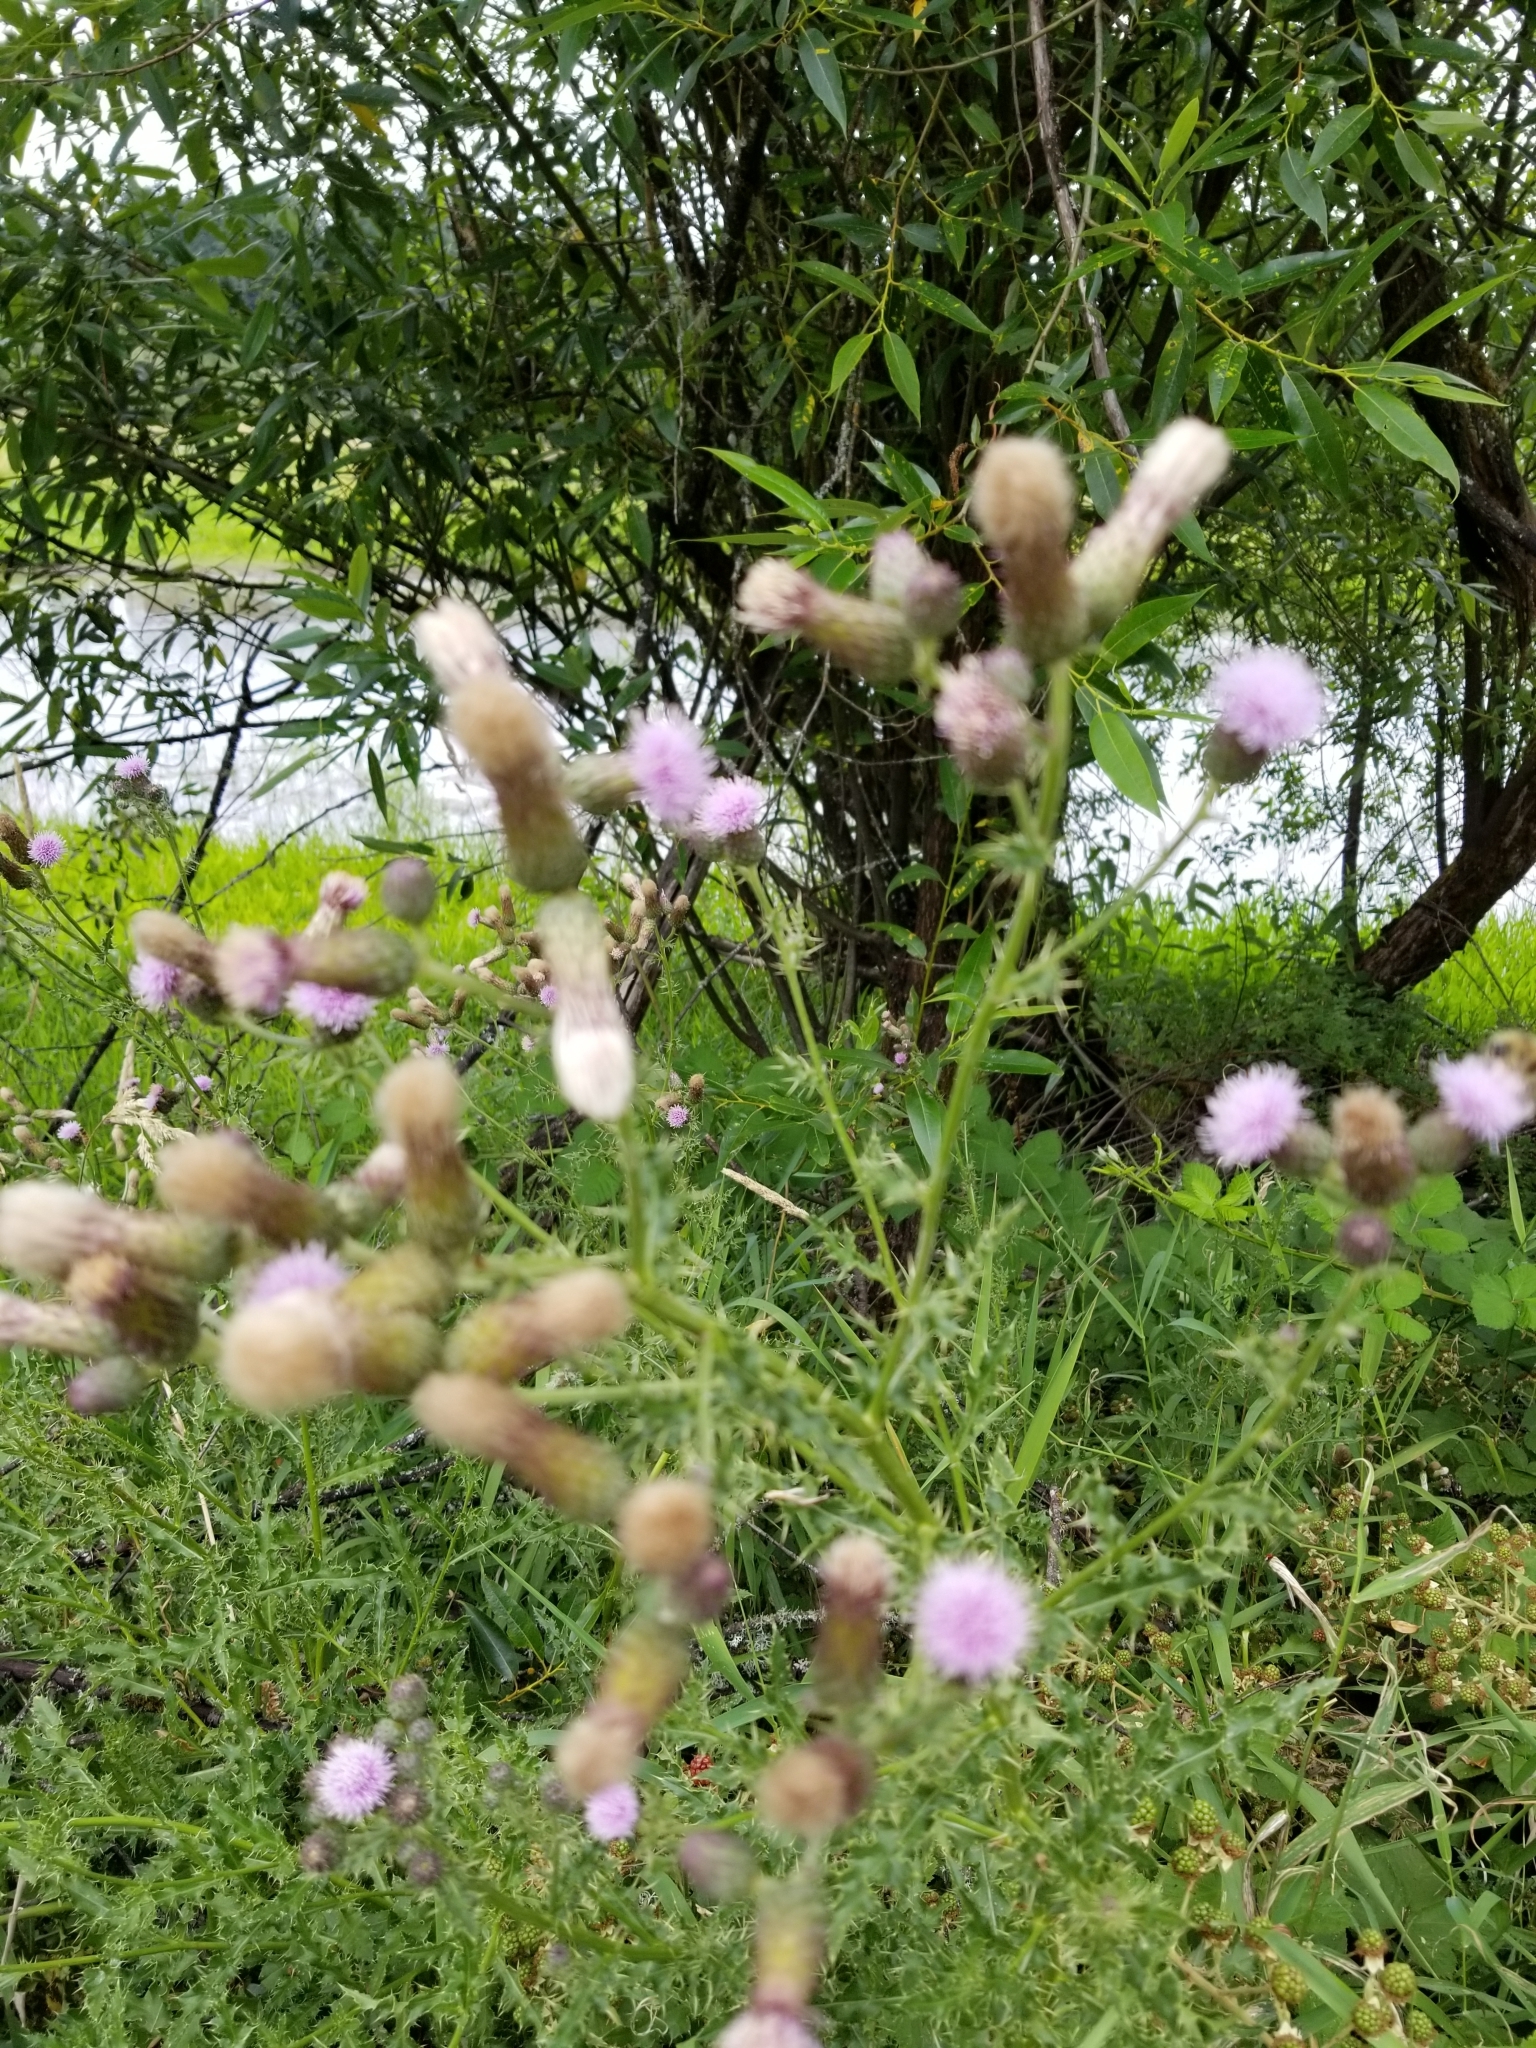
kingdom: Plantae
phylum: Tracheophyta
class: Magnoliopsida
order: Asterales
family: Asteraceae
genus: Cirsium
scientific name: Cirsium arvense
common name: Creeping thistle
